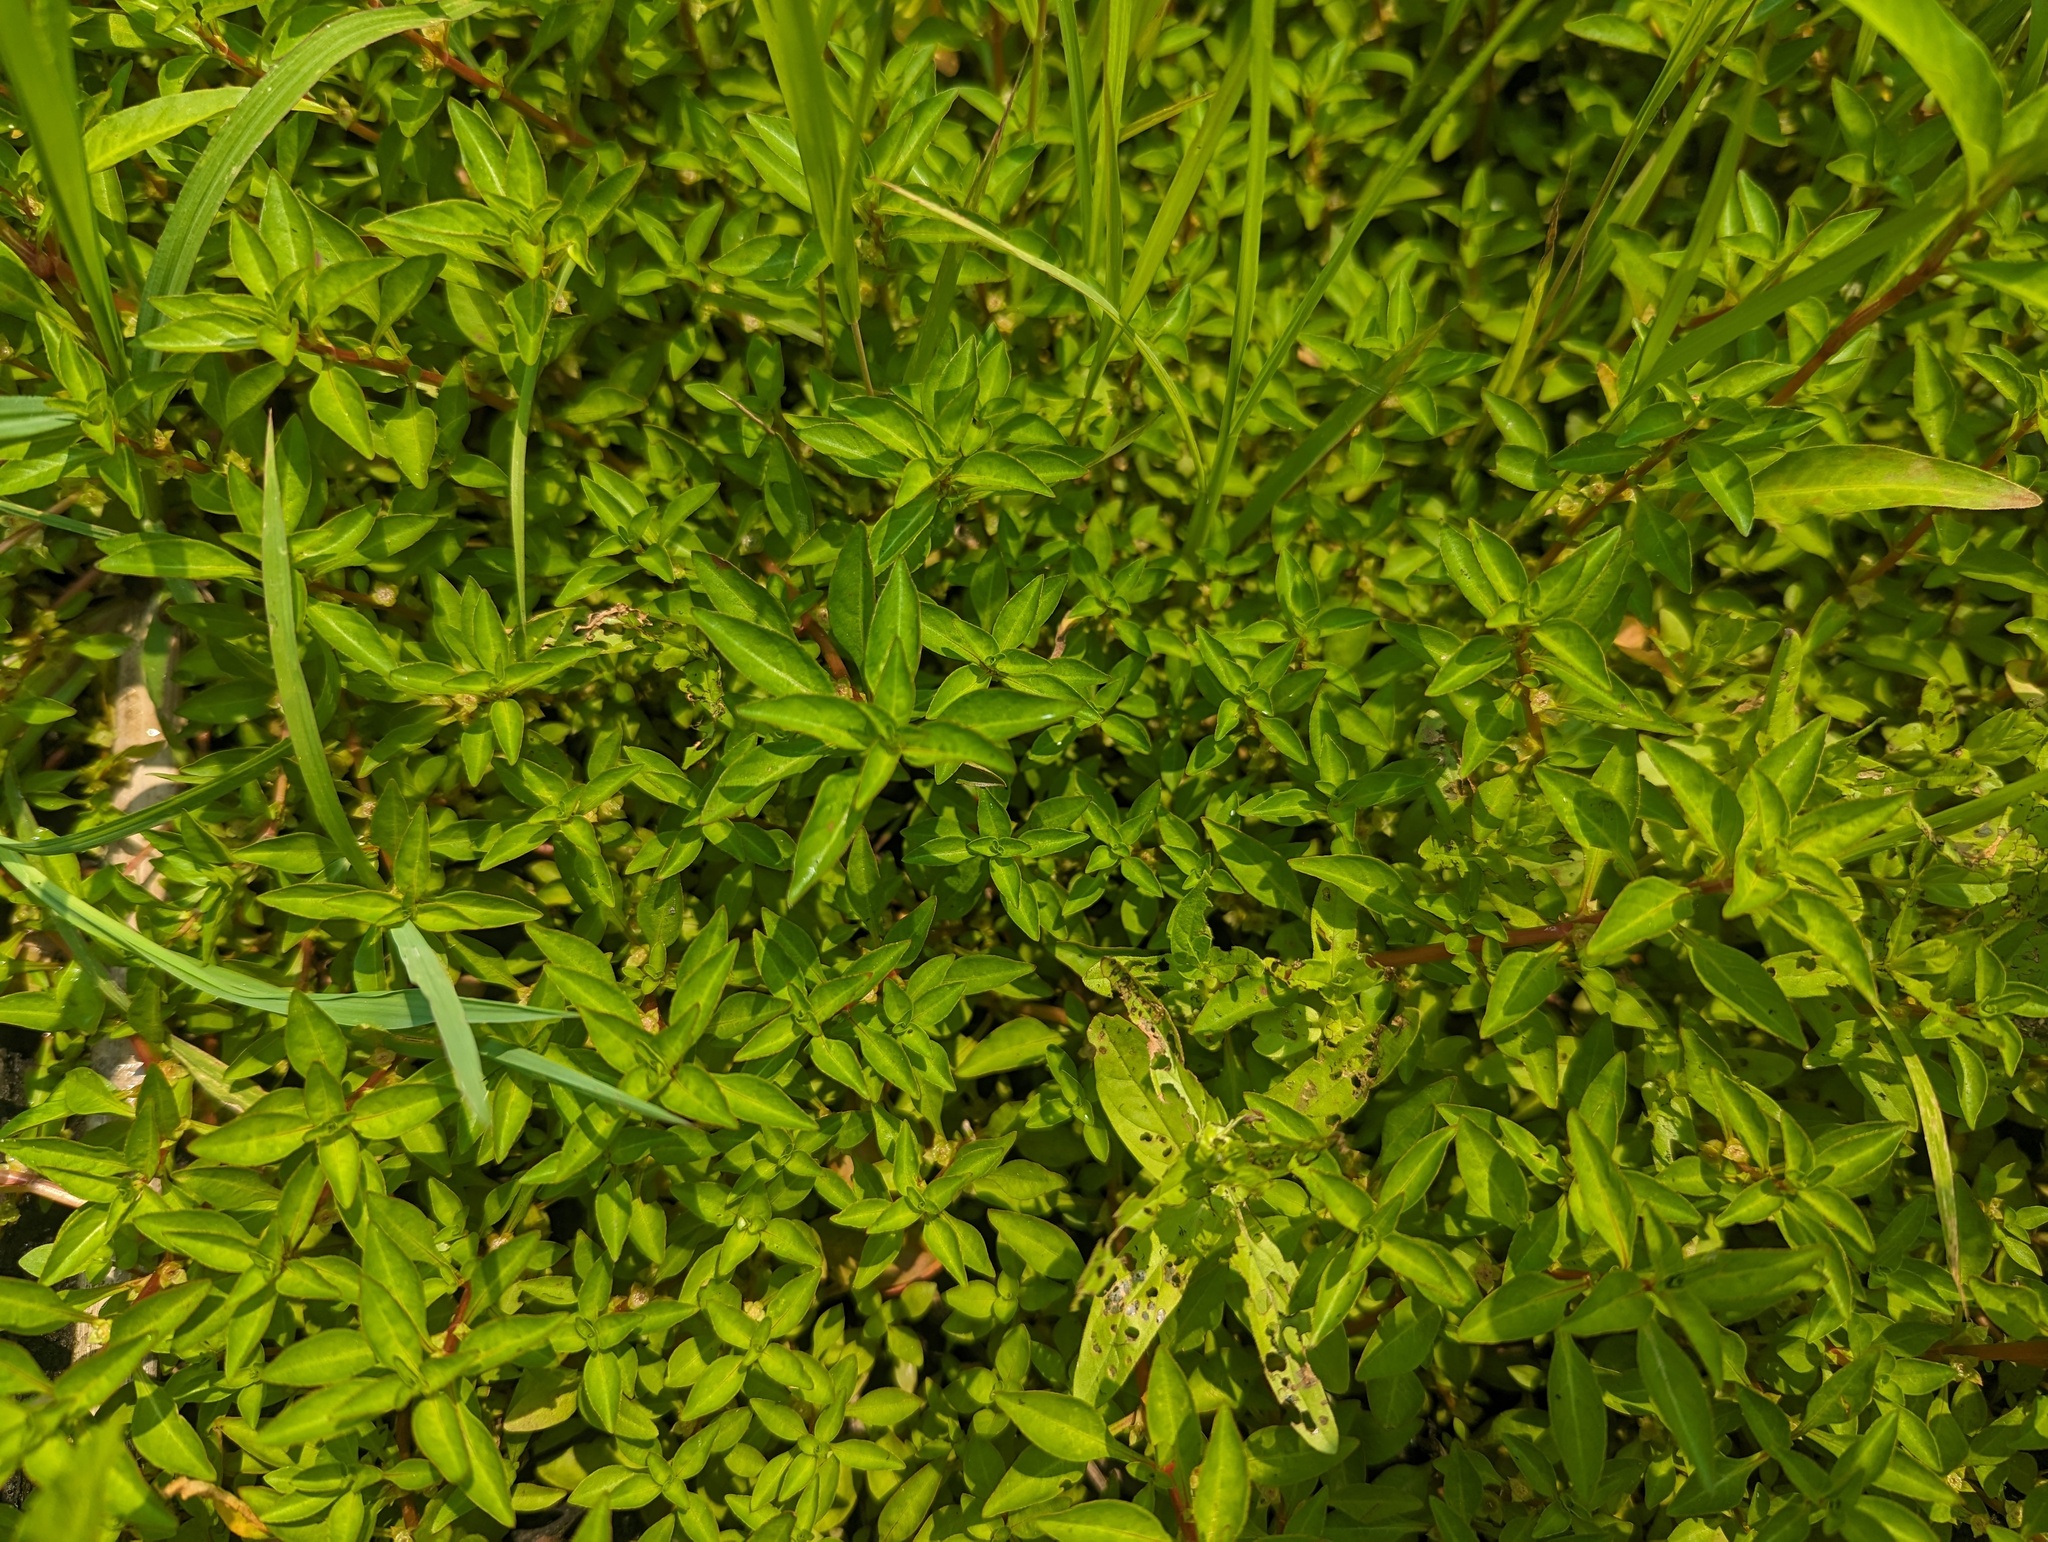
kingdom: Plantae
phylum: Tracheophyta
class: Magnoliopsida
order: Myrtales
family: Onagraceae
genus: Ludwigia
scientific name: Ludwigia palustris
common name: Hampshire-purslane
